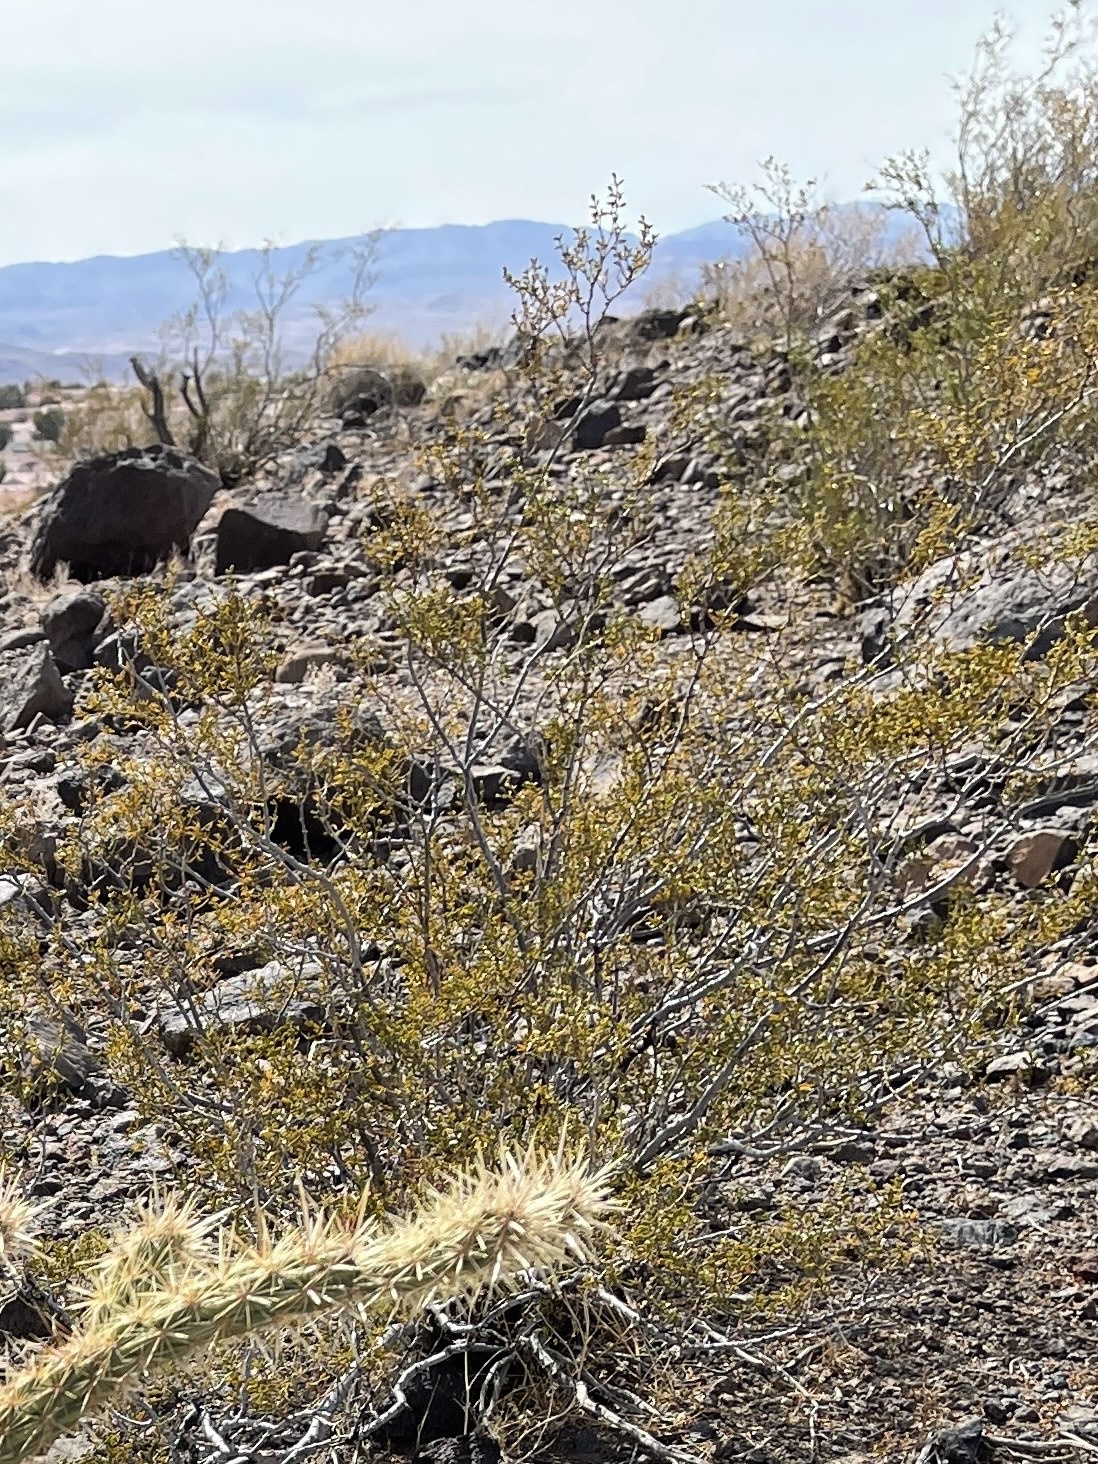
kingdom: Plantae
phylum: Tracheophyta
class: Magnoliopsida
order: Zygophyllales
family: Zygophyllaceae
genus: Larrea
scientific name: Larrea tridentata
